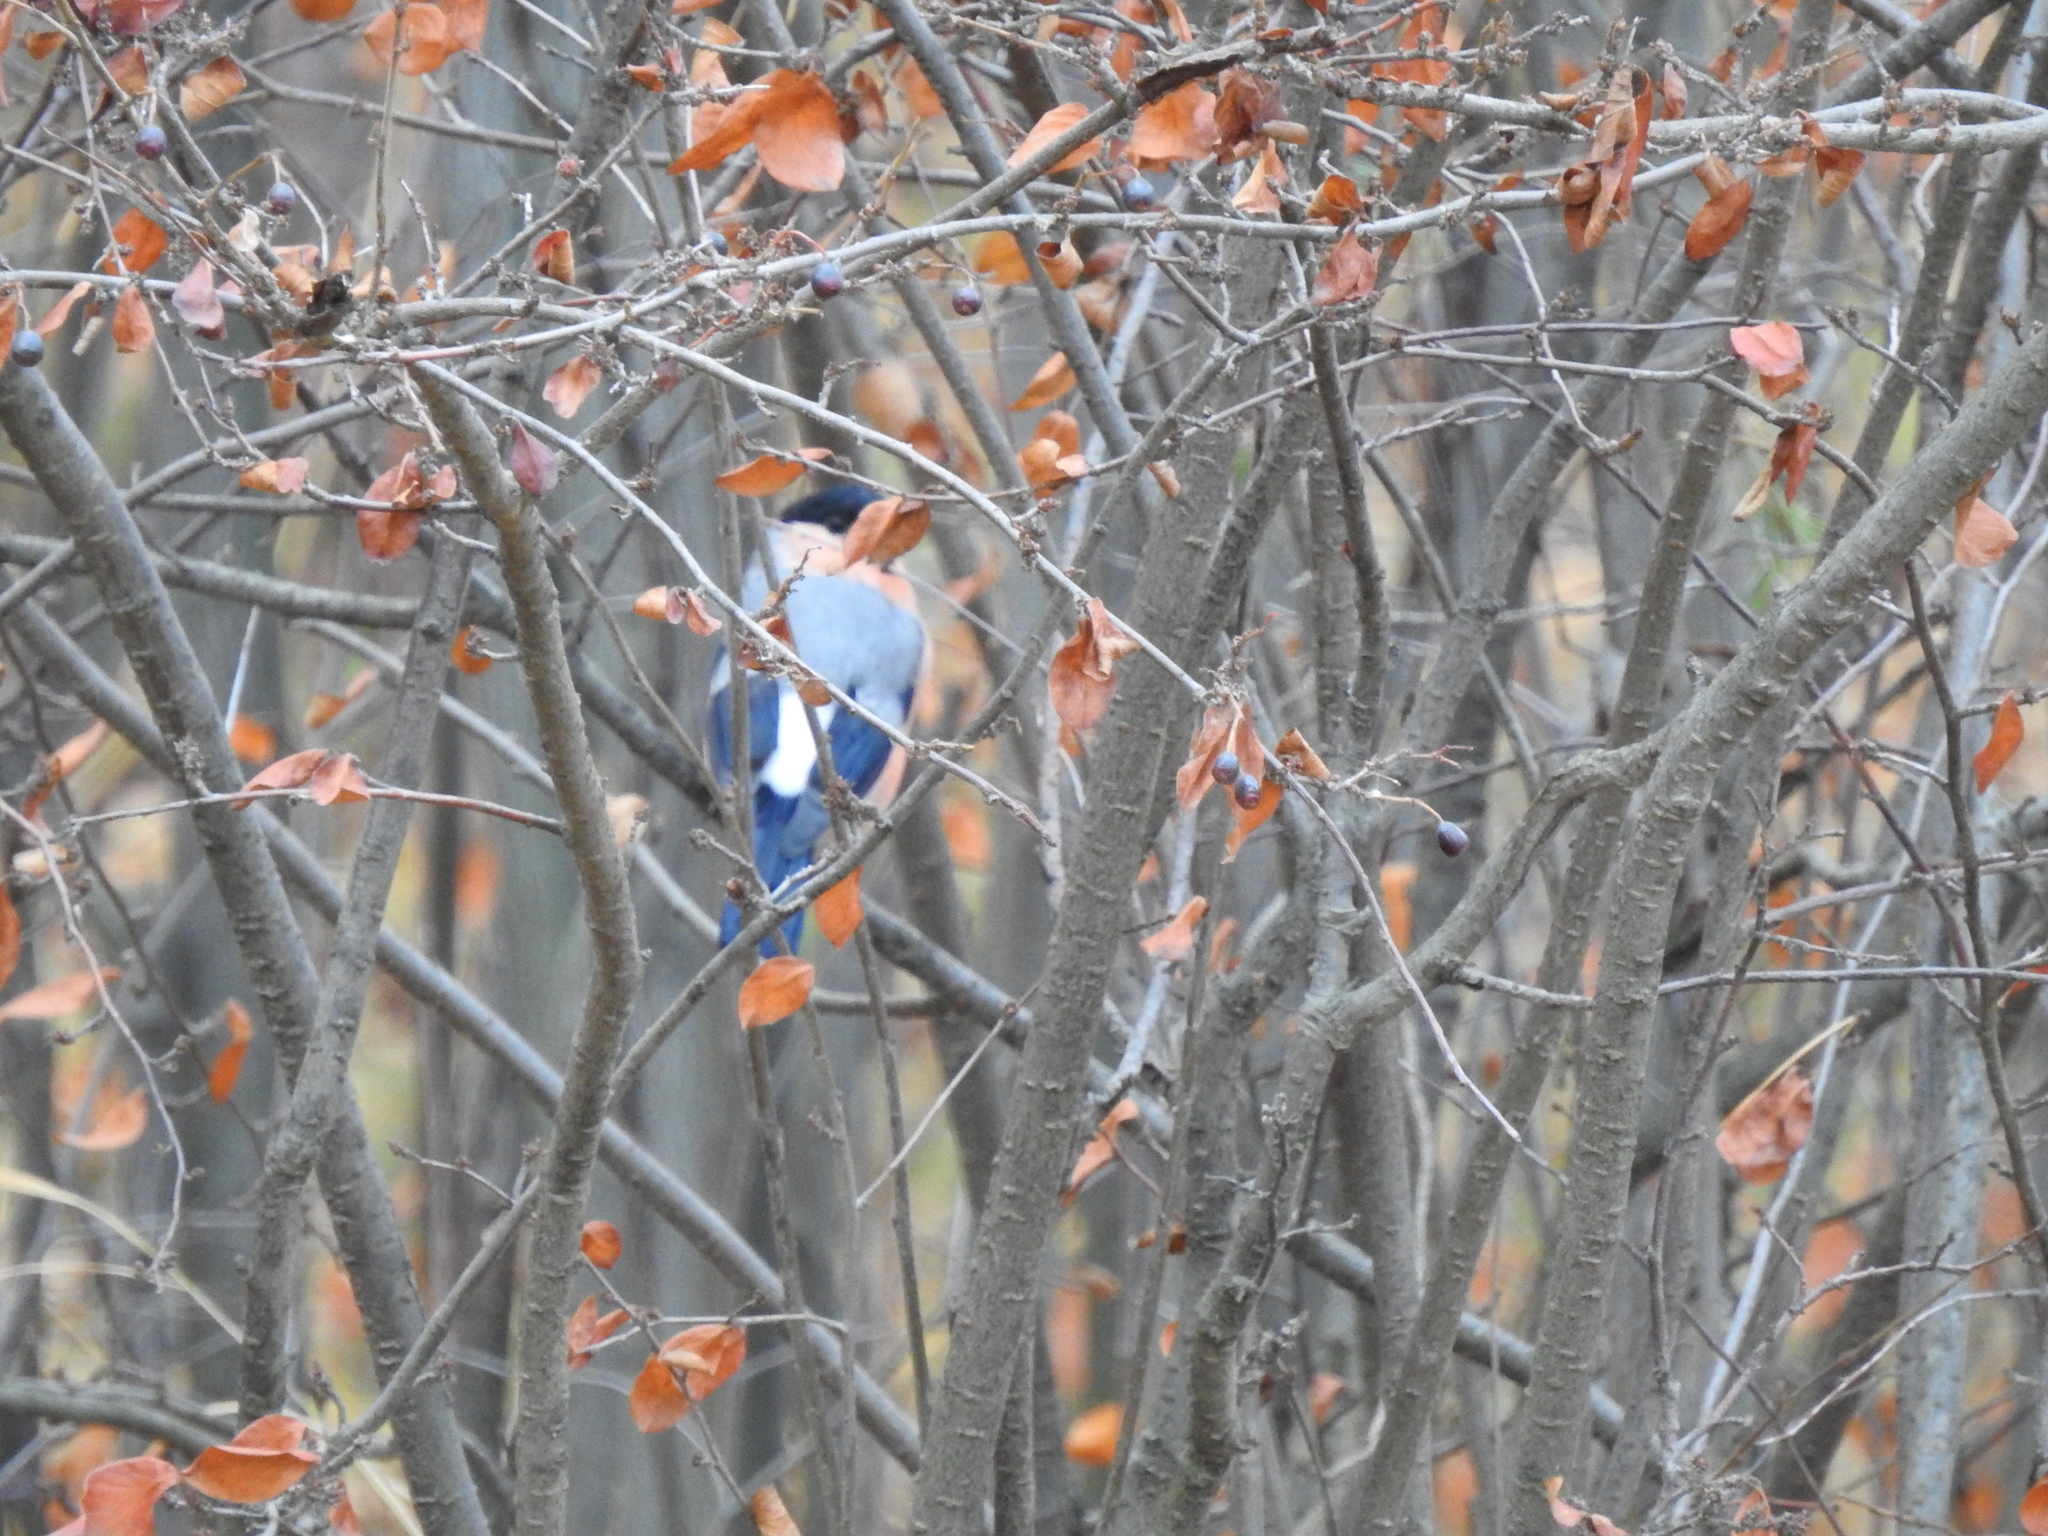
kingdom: Animalia
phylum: Chordata
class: Aves
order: Passeriformes
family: Fringillidae
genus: Pyrrhula
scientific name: Pyrrhula pyrrhula
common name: Eurasian bullfinch
